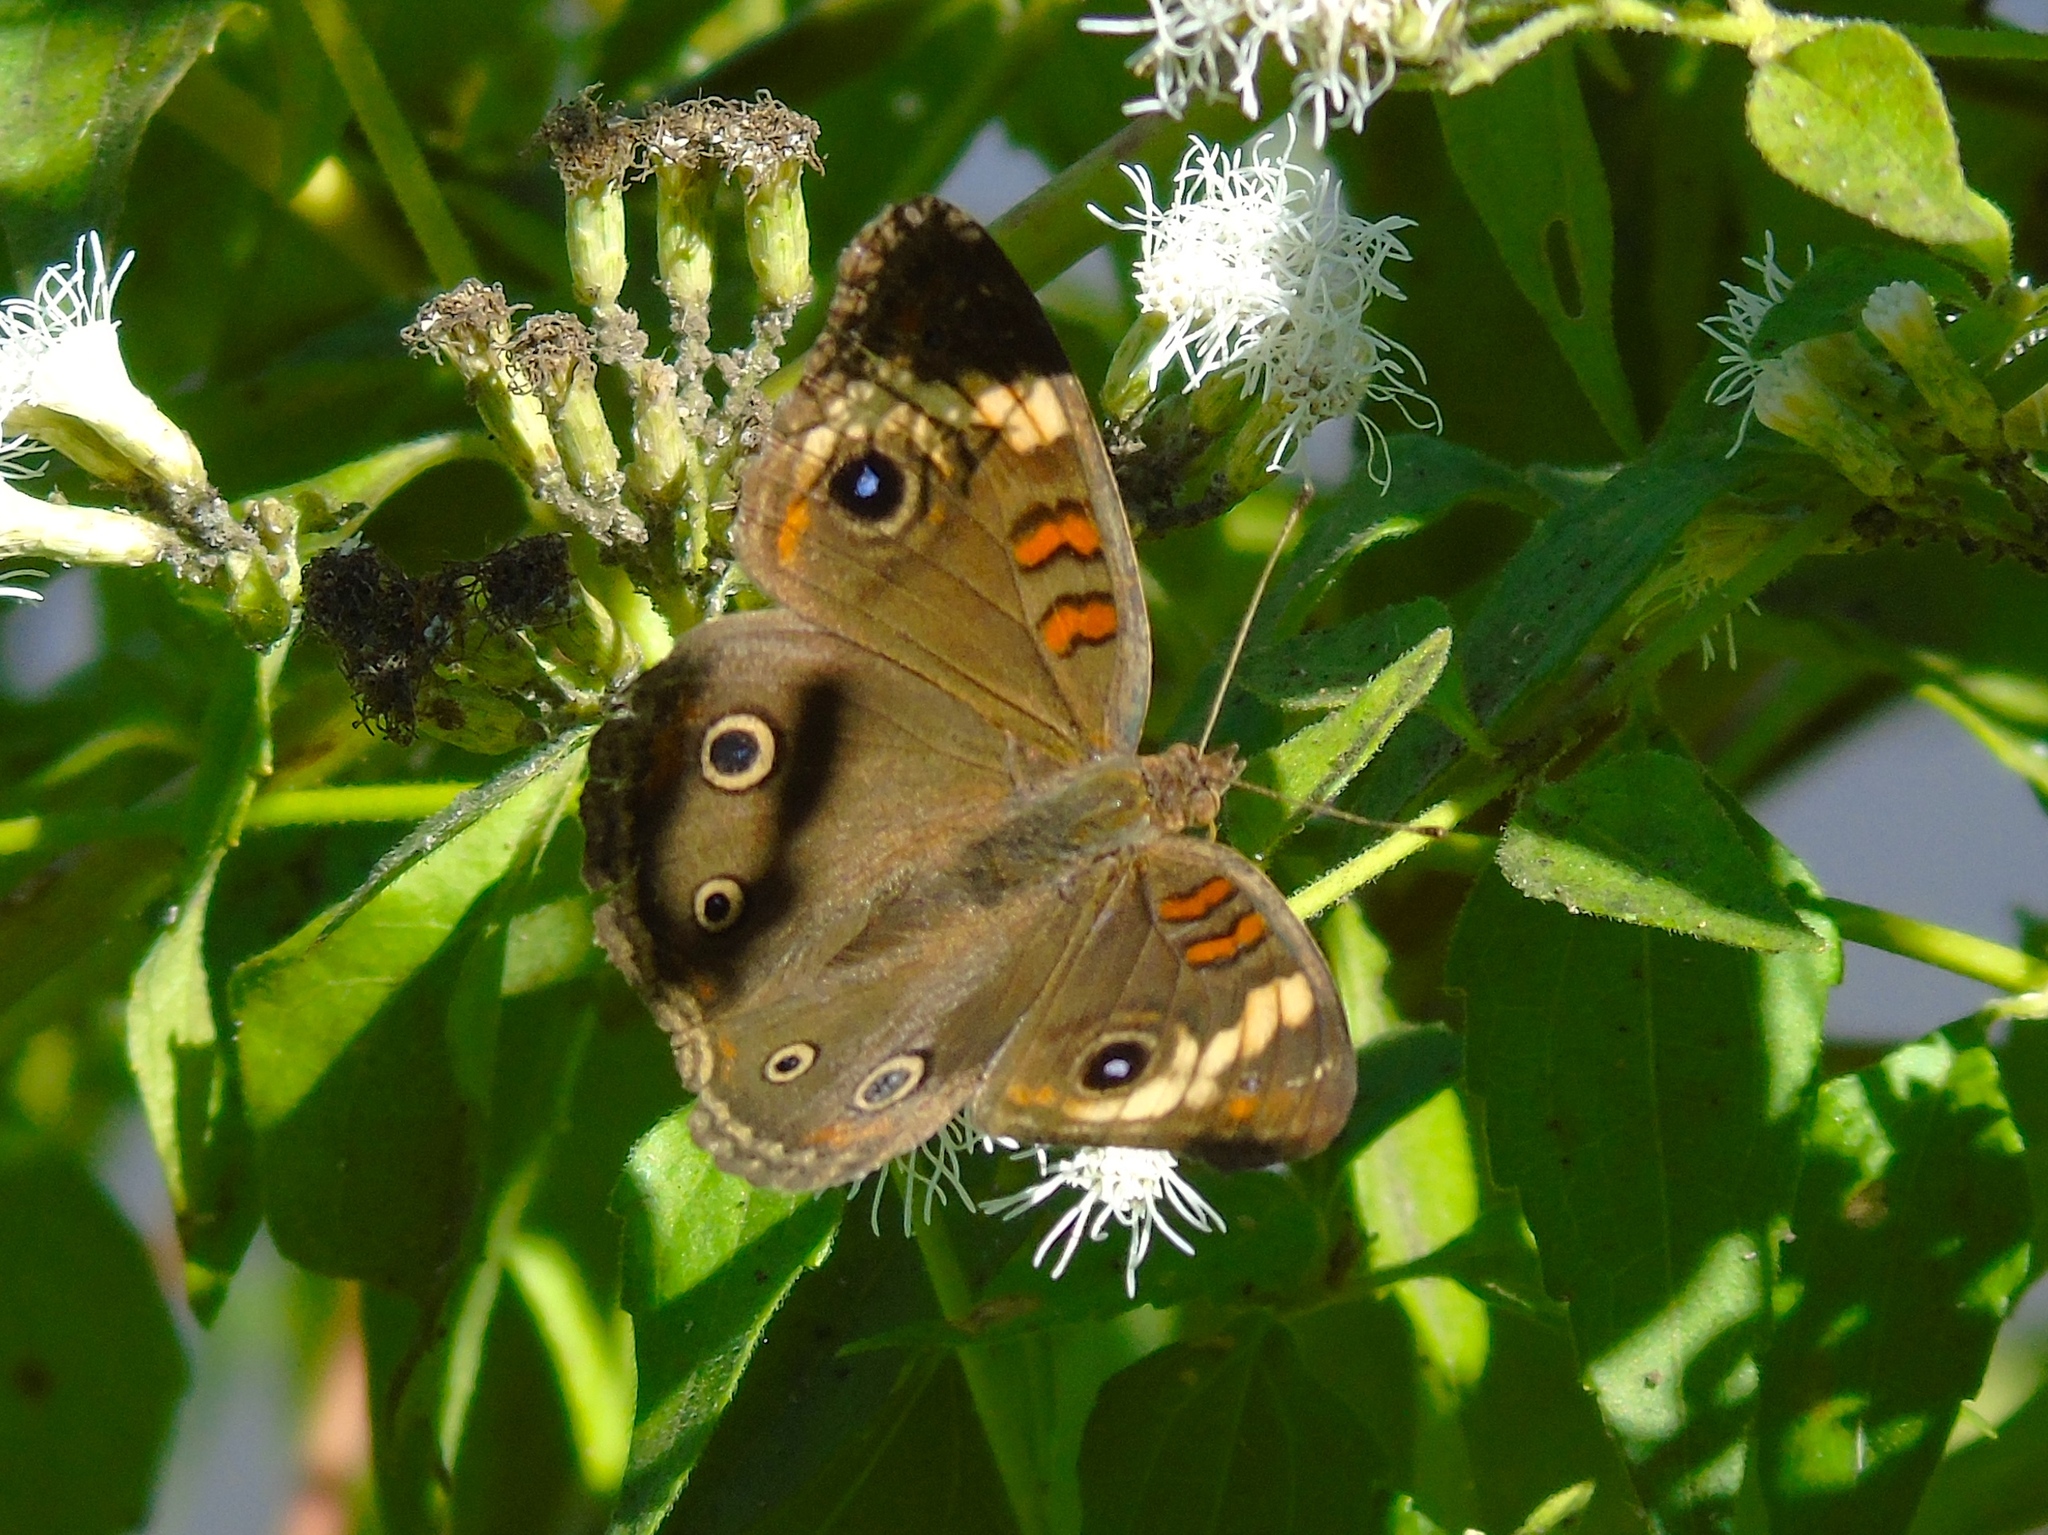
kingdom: Animalia
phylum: Arthropoda
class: Insecta
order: Lepidoptera
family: Nymphalidae
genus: Junonia
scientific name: Junonia pacoma
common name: Pacific mangrove buckeye
